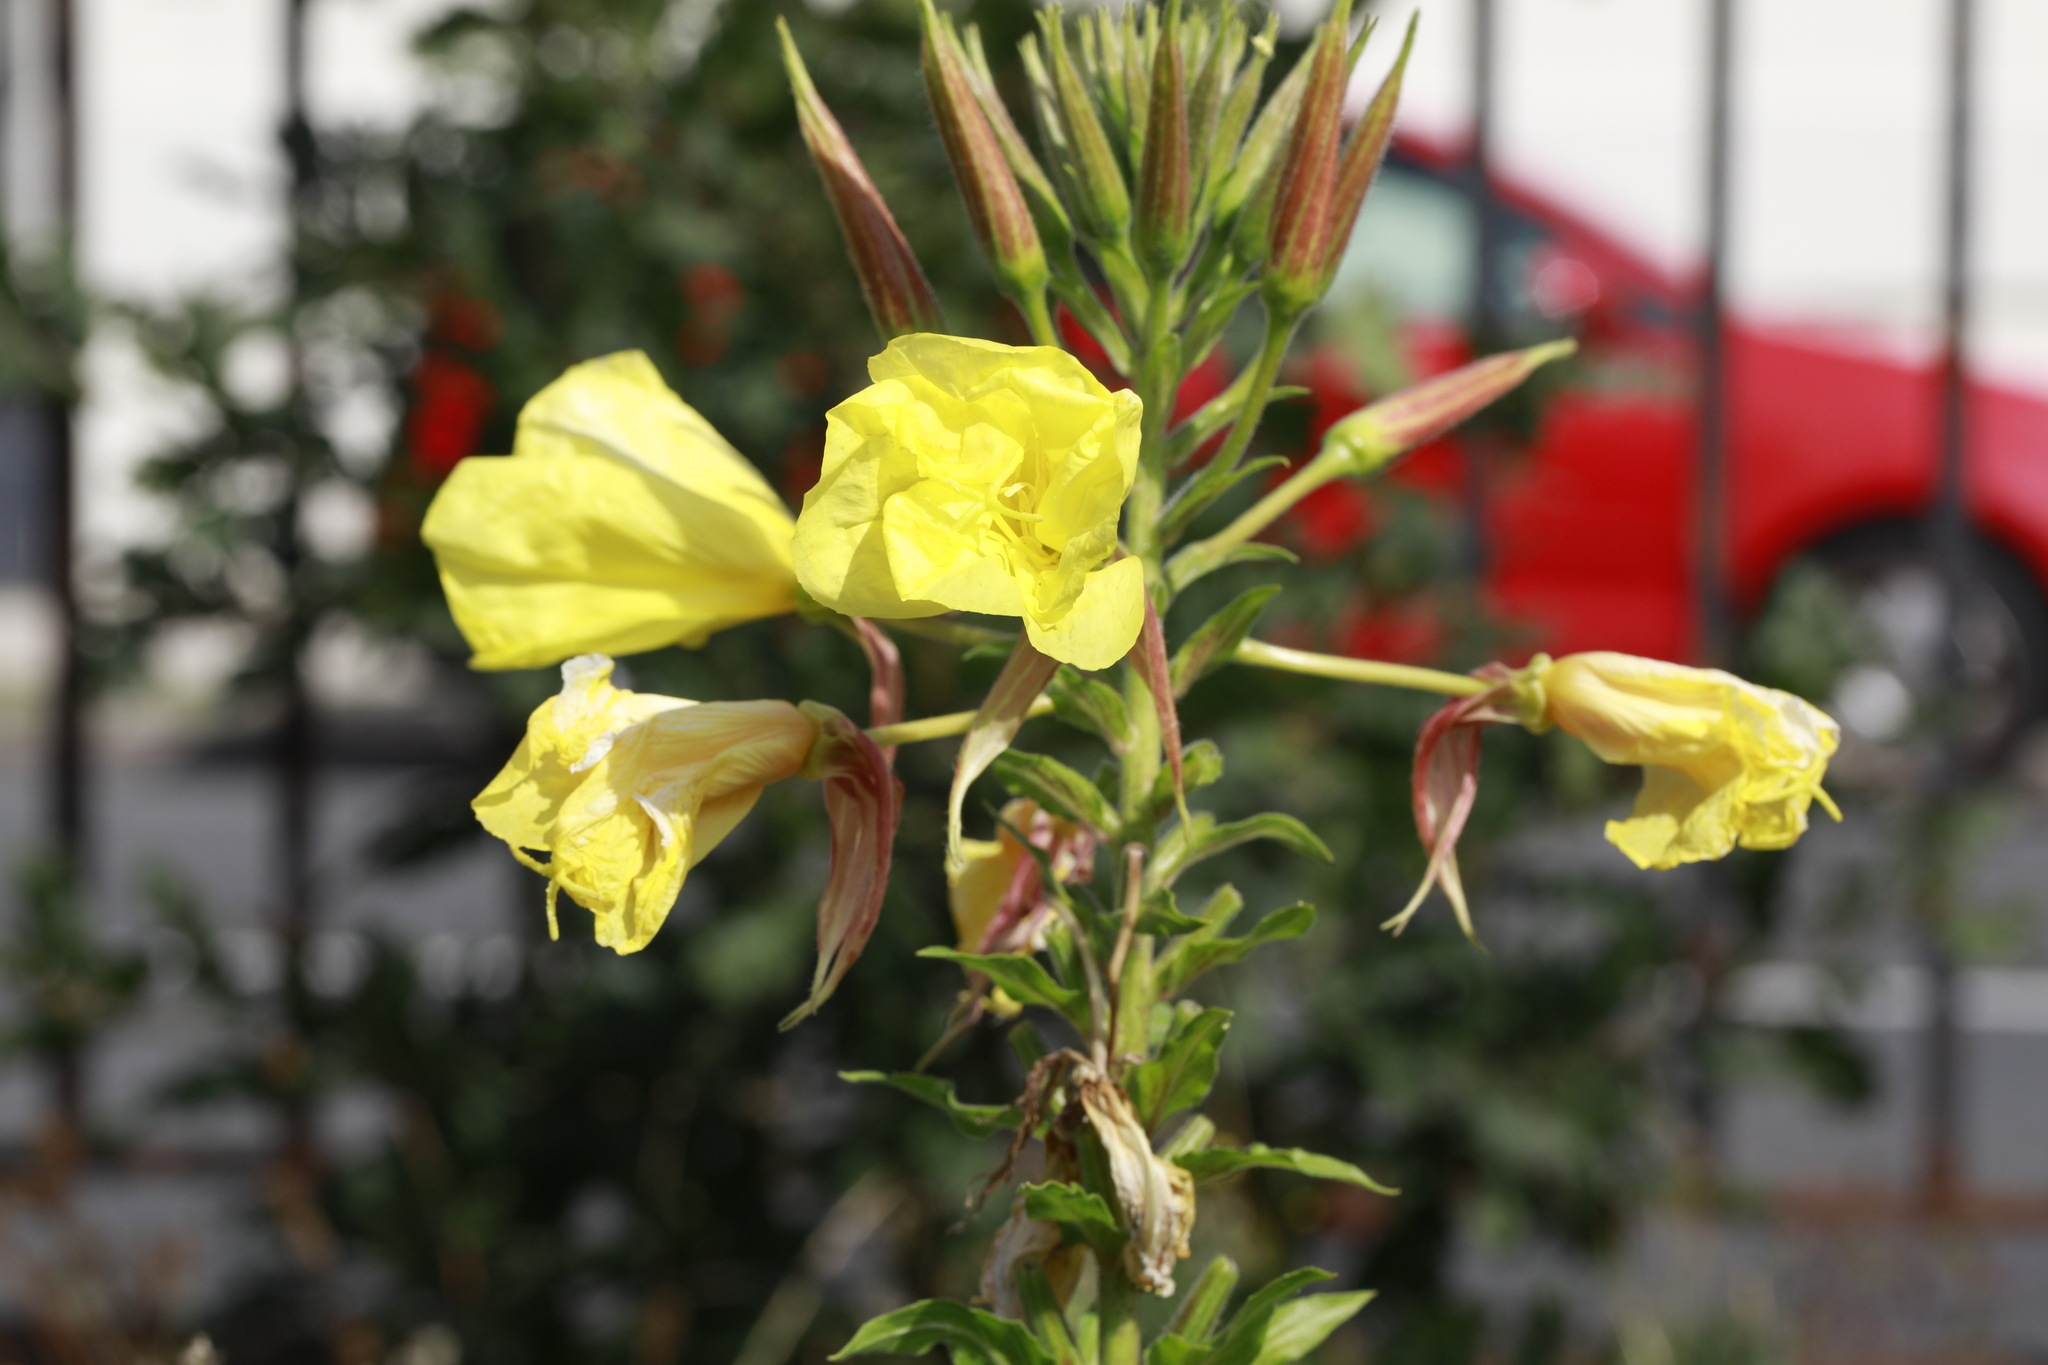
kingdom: Plantae
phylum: Tracheophyta
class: Magnoliopsida
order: Myrtales
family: Onagraceae
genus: Oenothera
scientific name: Oenothera glazioviana
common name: Large-flowered evening-primrose
